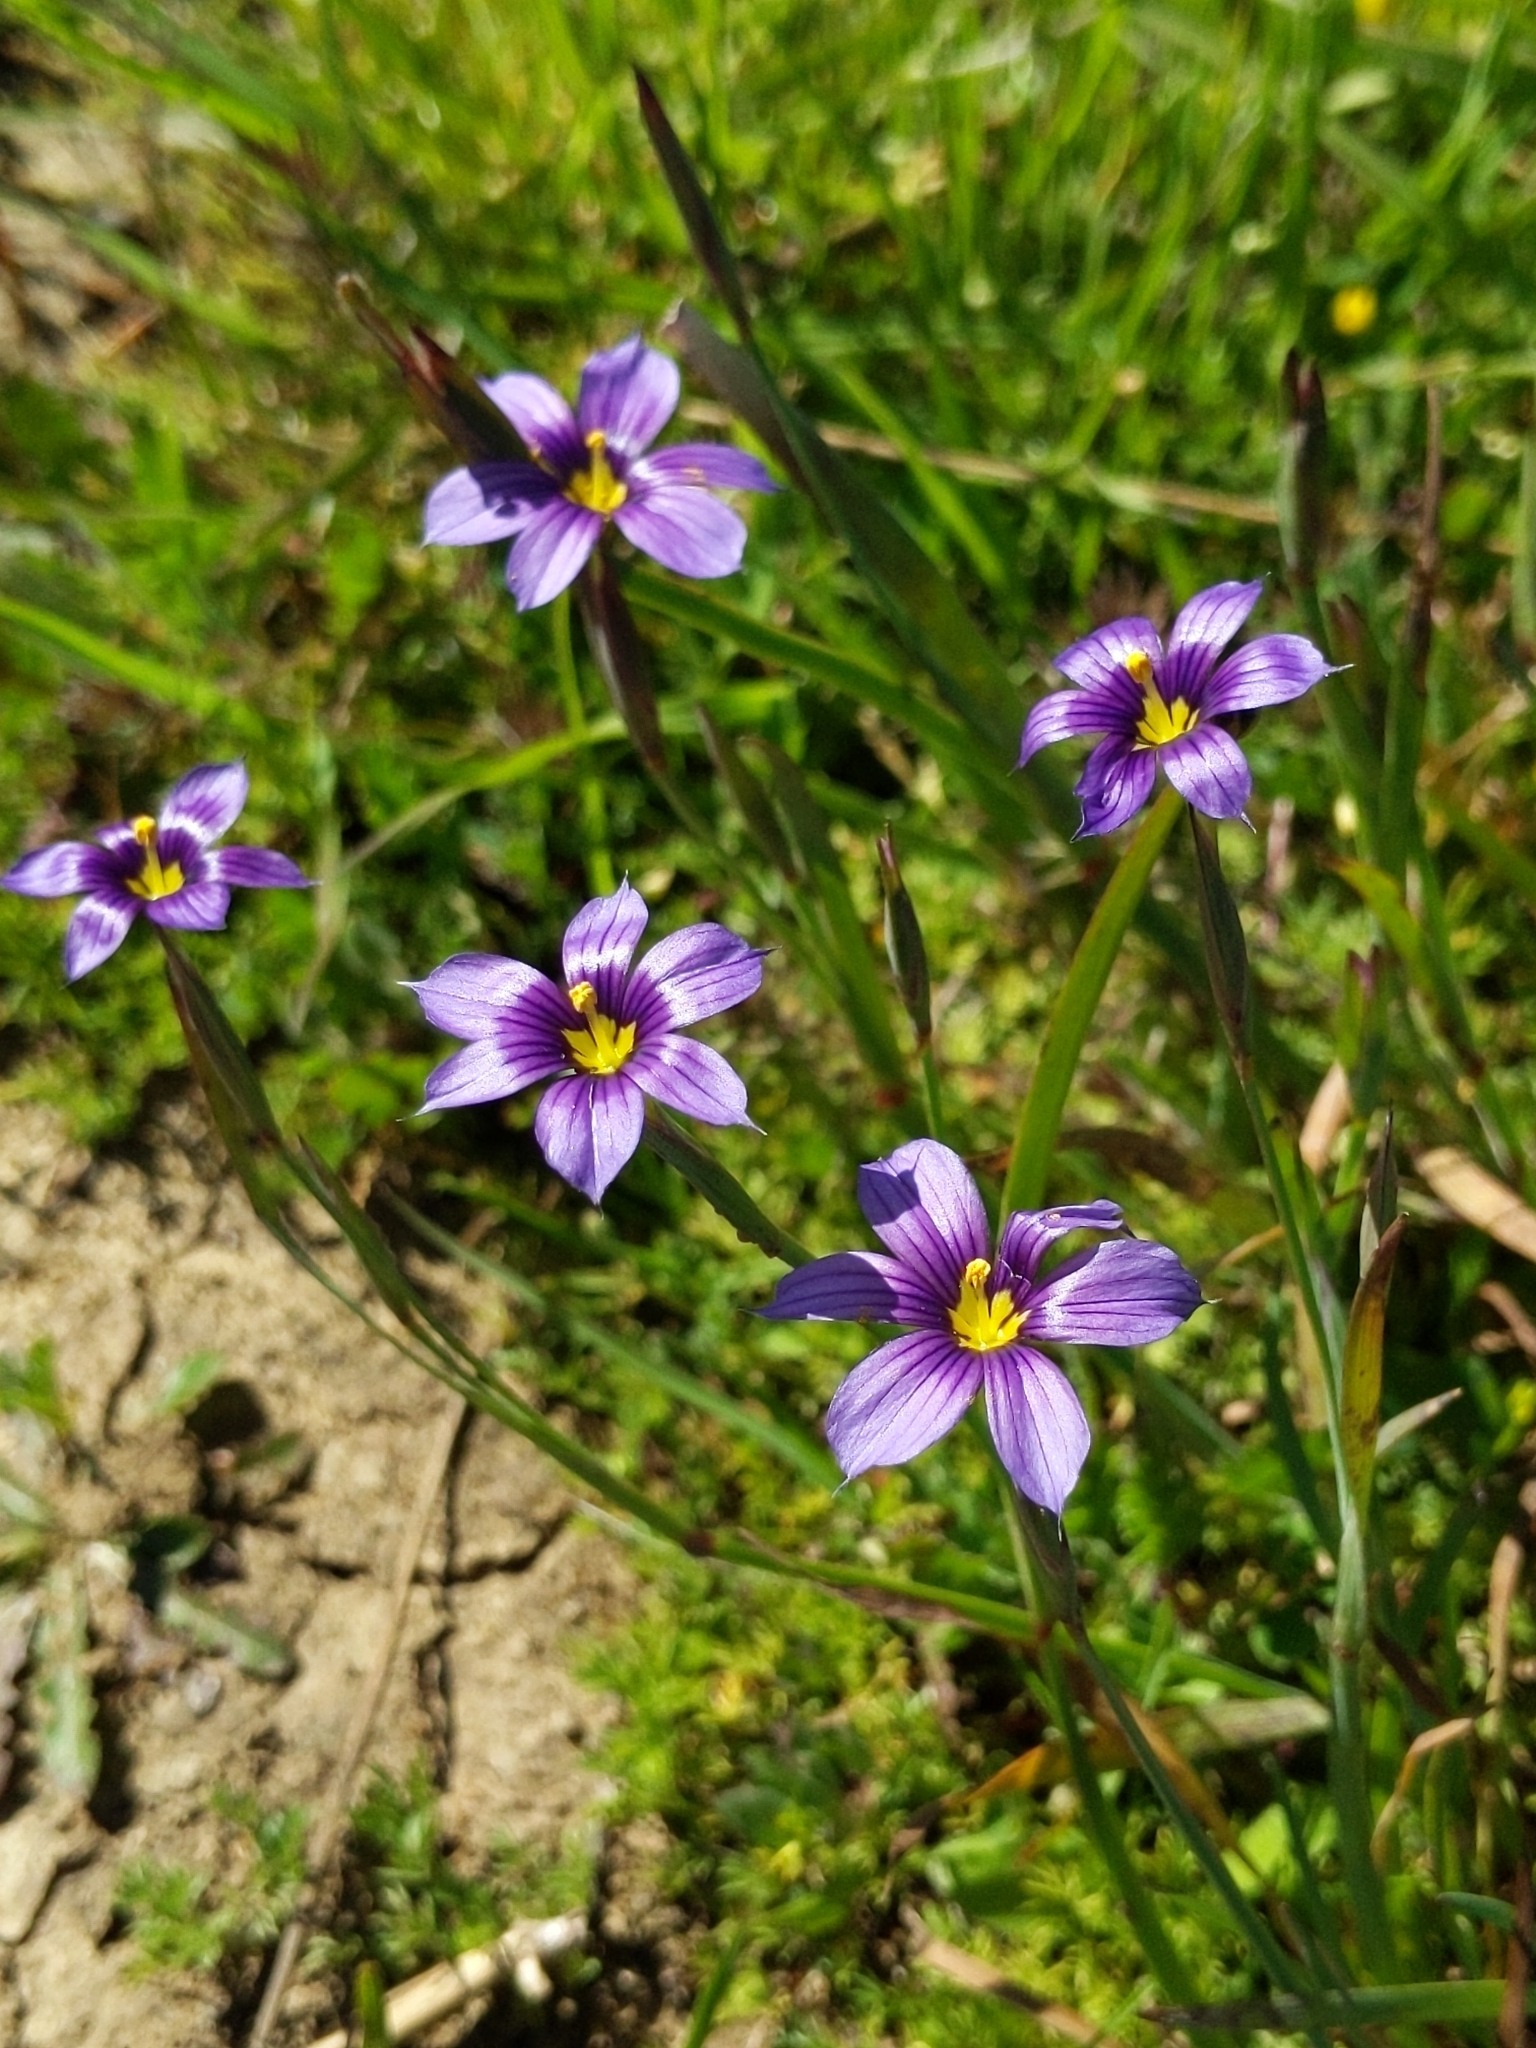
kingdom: Plantae
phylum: Tracheophyta
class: Liliopsida
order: Asparagales
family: Iridaceae
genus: Sisyrinchium
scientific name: Sisyrinchium bellum
